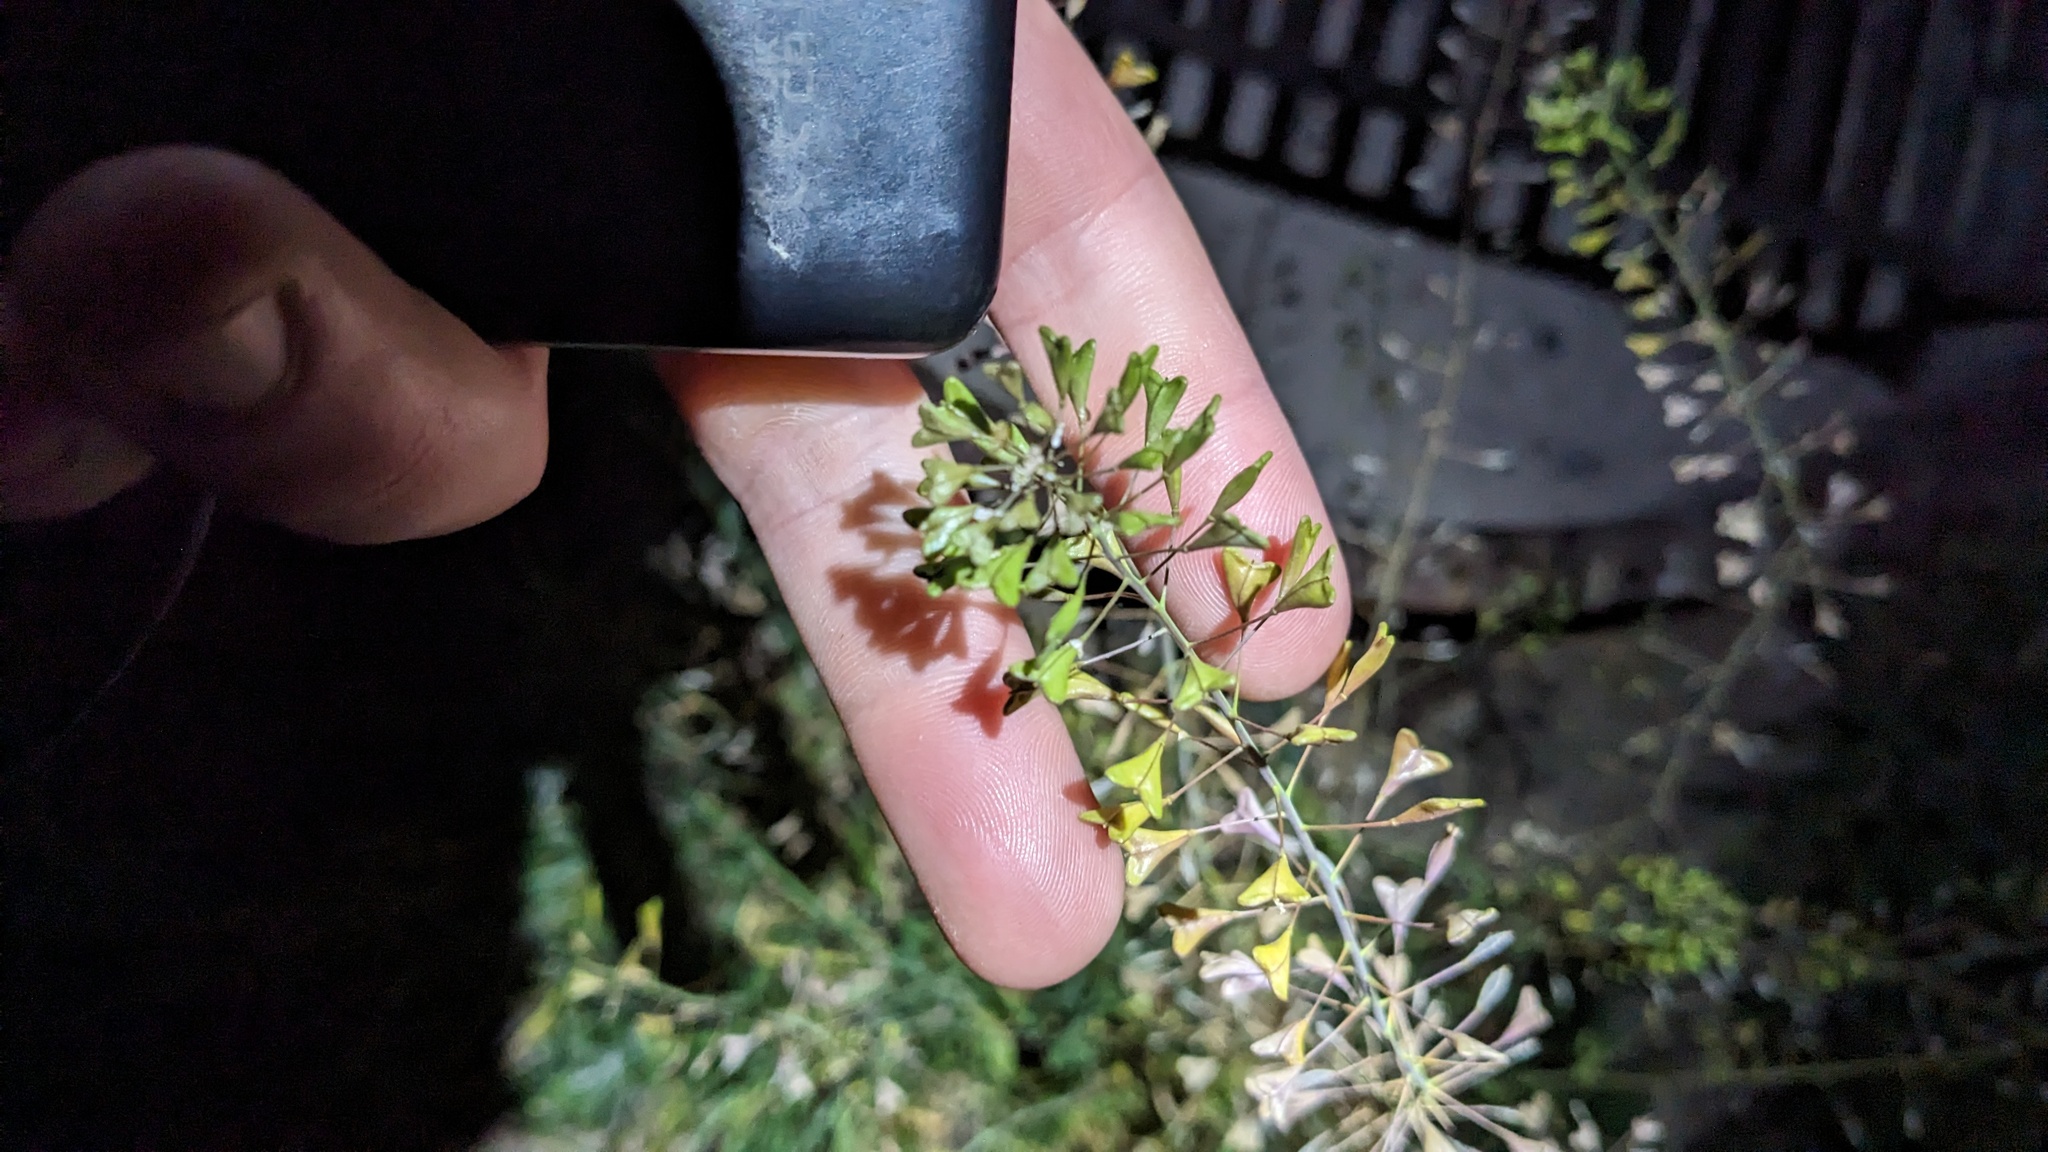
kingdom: Plantae
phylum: Tracheophyta
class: Magnoliopsida
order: Brassicales
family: Brassicaceae
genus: Capsella
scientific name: Capsella bursa-pastoris
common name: Shepherd's purse
